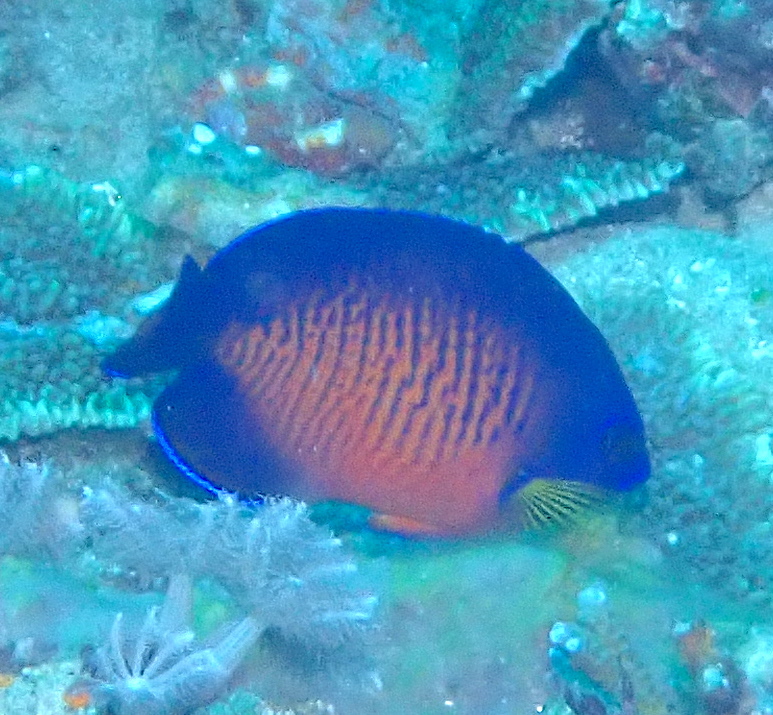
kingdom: Animalia
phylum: Chordata
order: Perciformes
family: Pomacanthidae
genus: Centropyge
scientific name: Centropyge bispinosa
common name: Coral beauty
